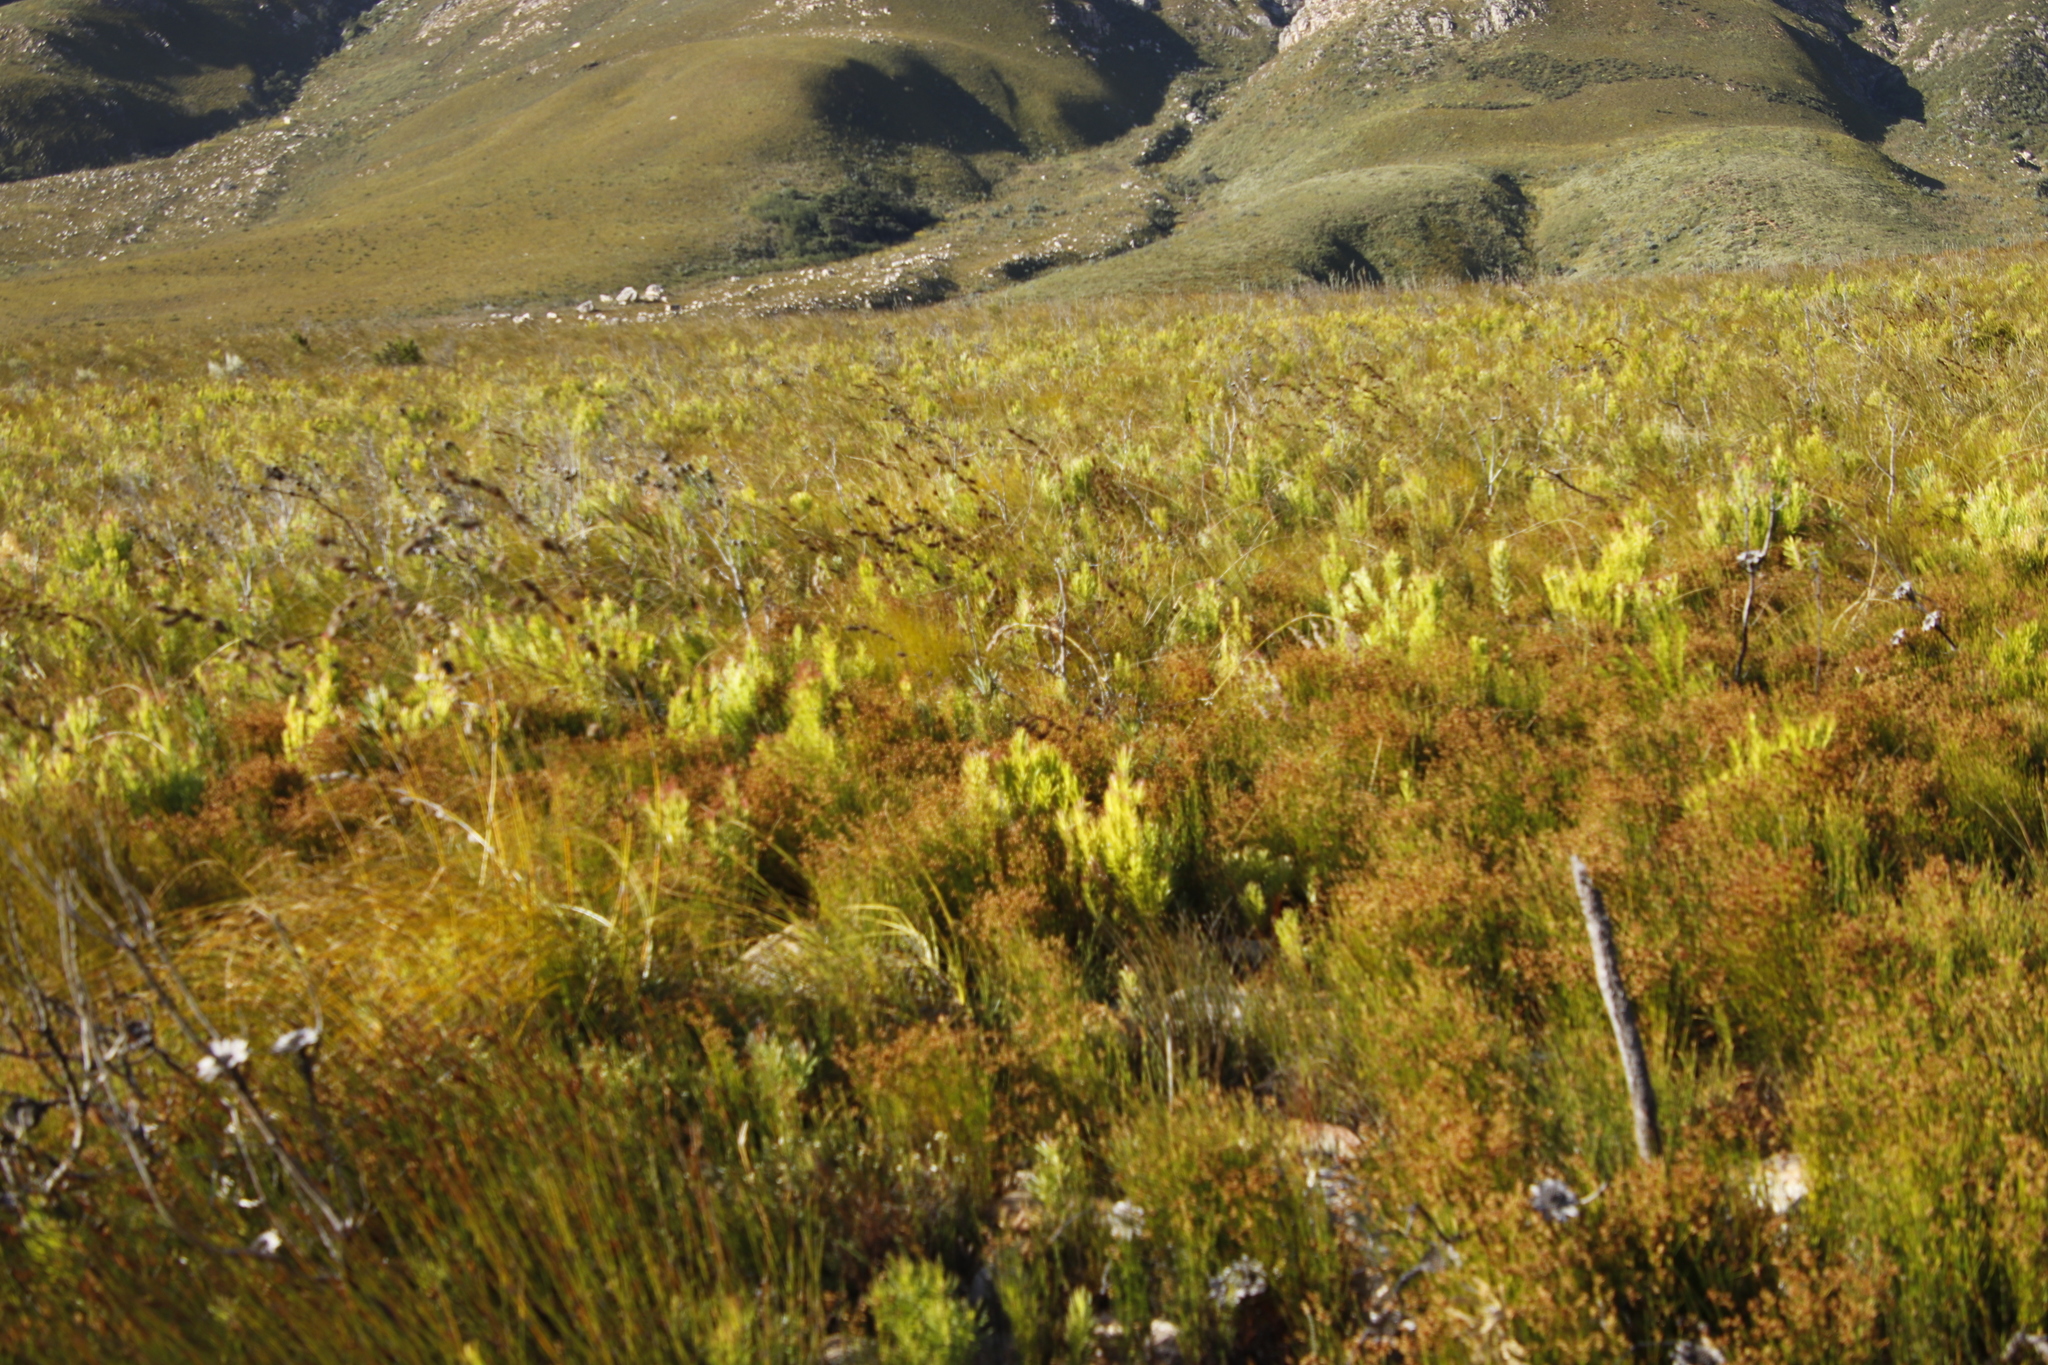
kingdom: Plantae
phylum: Tracheophyta
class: Magnoliopsida
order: Proteales
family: Proteaceae
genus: Leucadendron
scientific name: Leucadendron xanthoconus
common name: Sickle-leaf conebush
